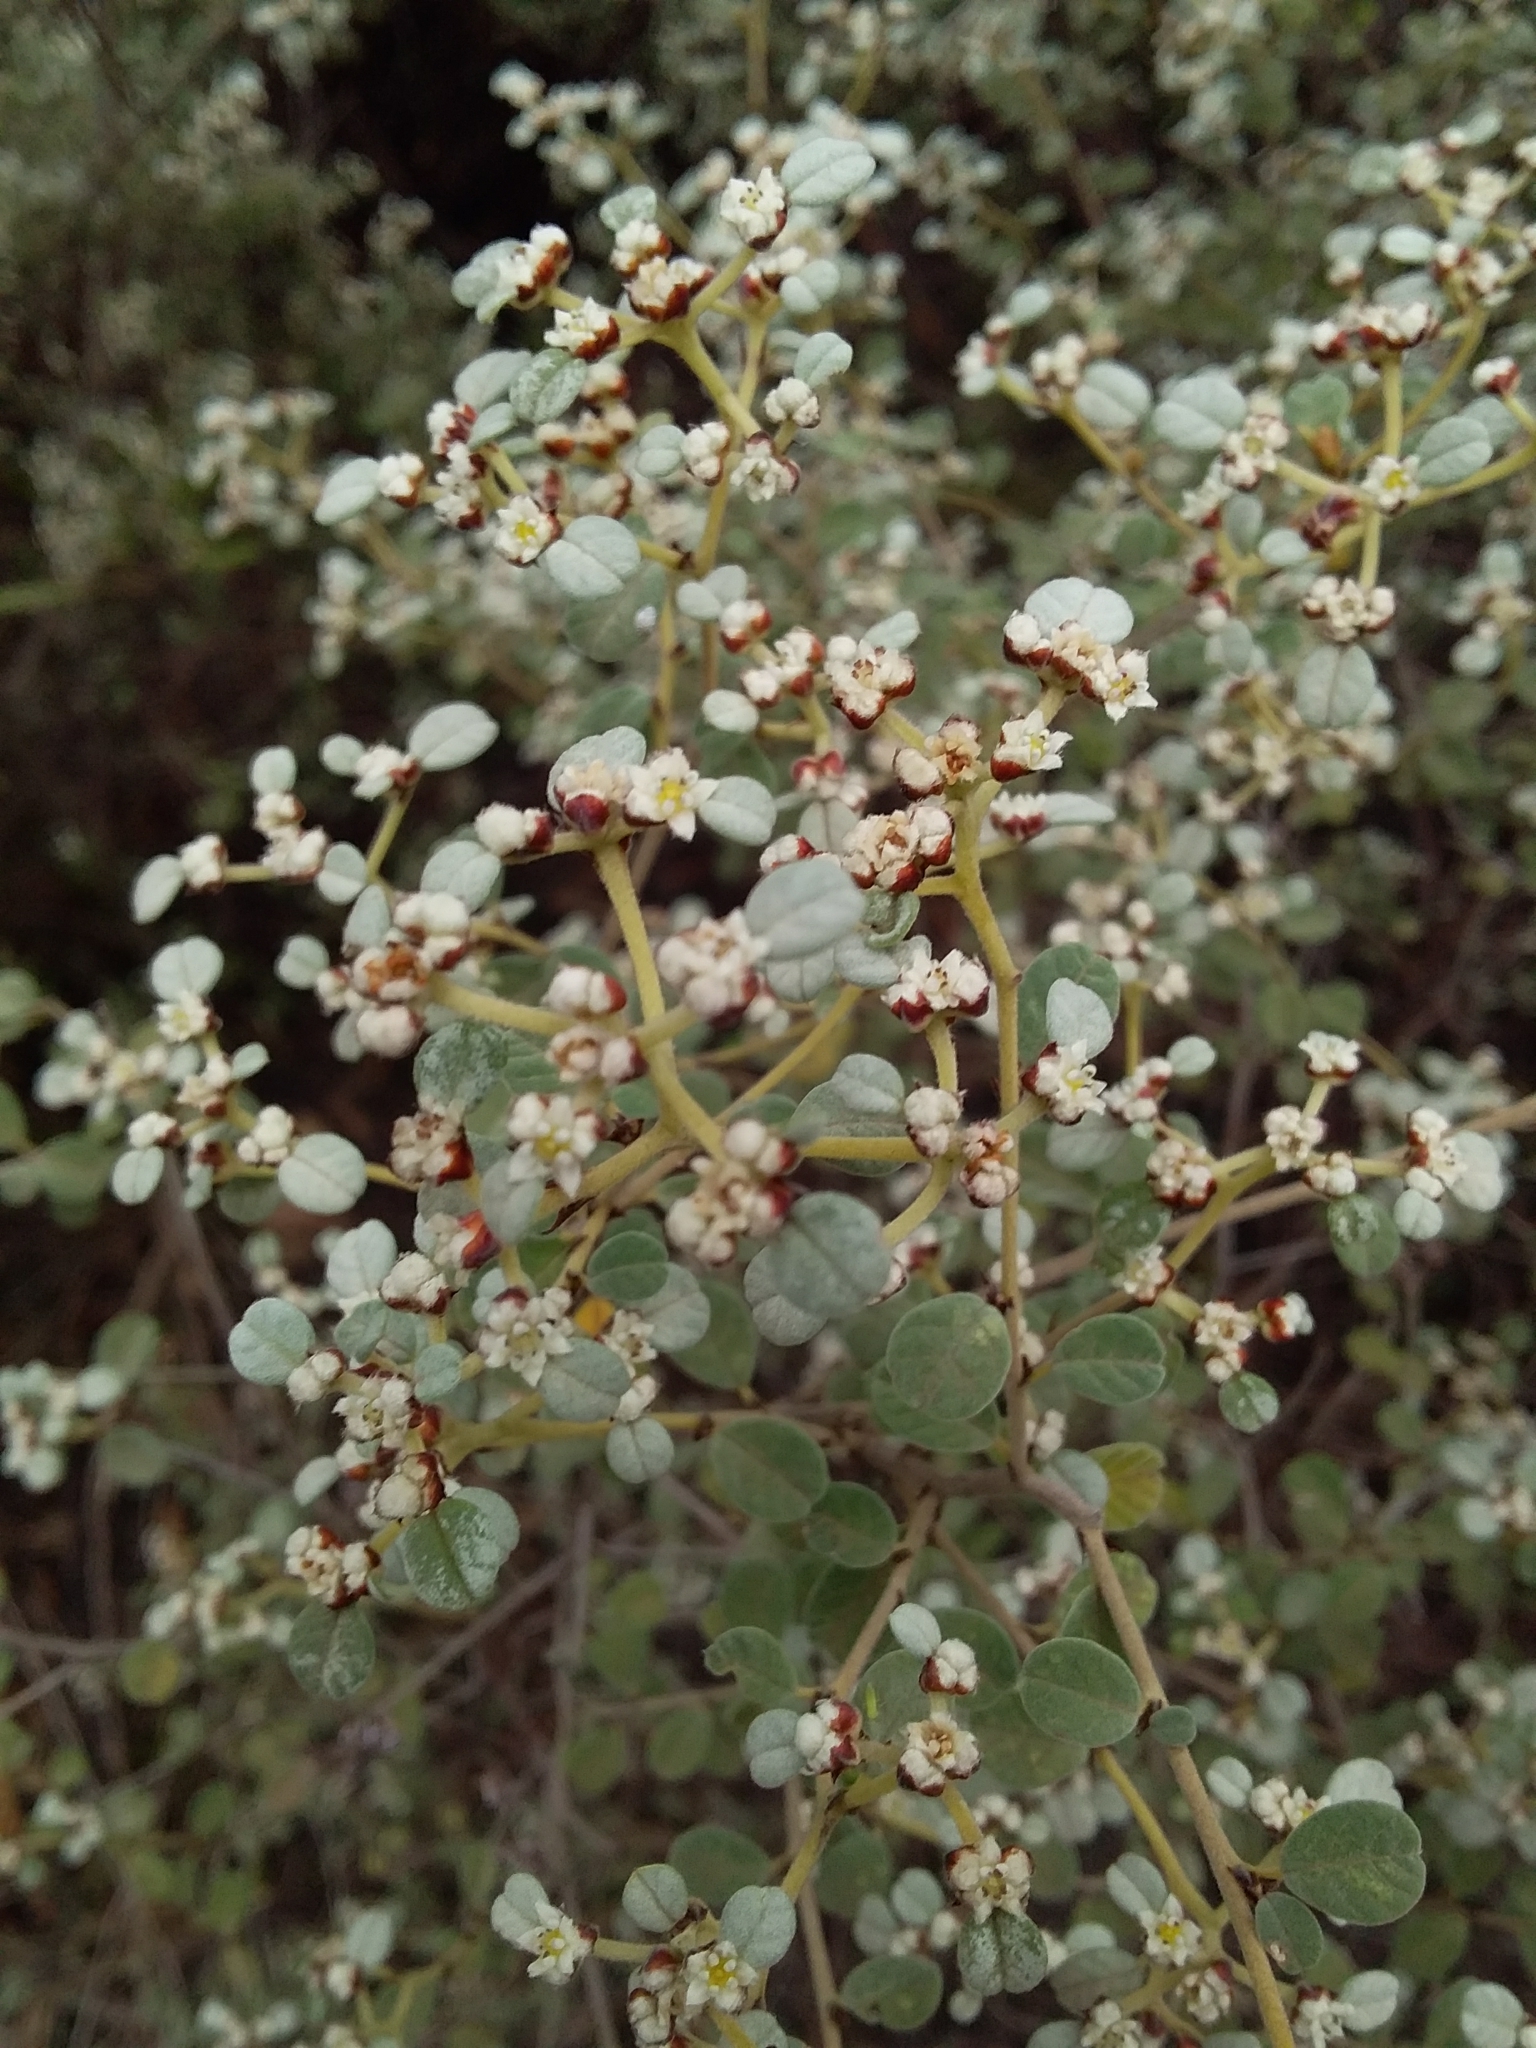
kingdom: Plantae
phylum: Tracheophyta
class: Magnoliopsida
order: Rosales
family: Rhamnaceae
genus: Spyridium
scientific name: Spyridium parvifolium
